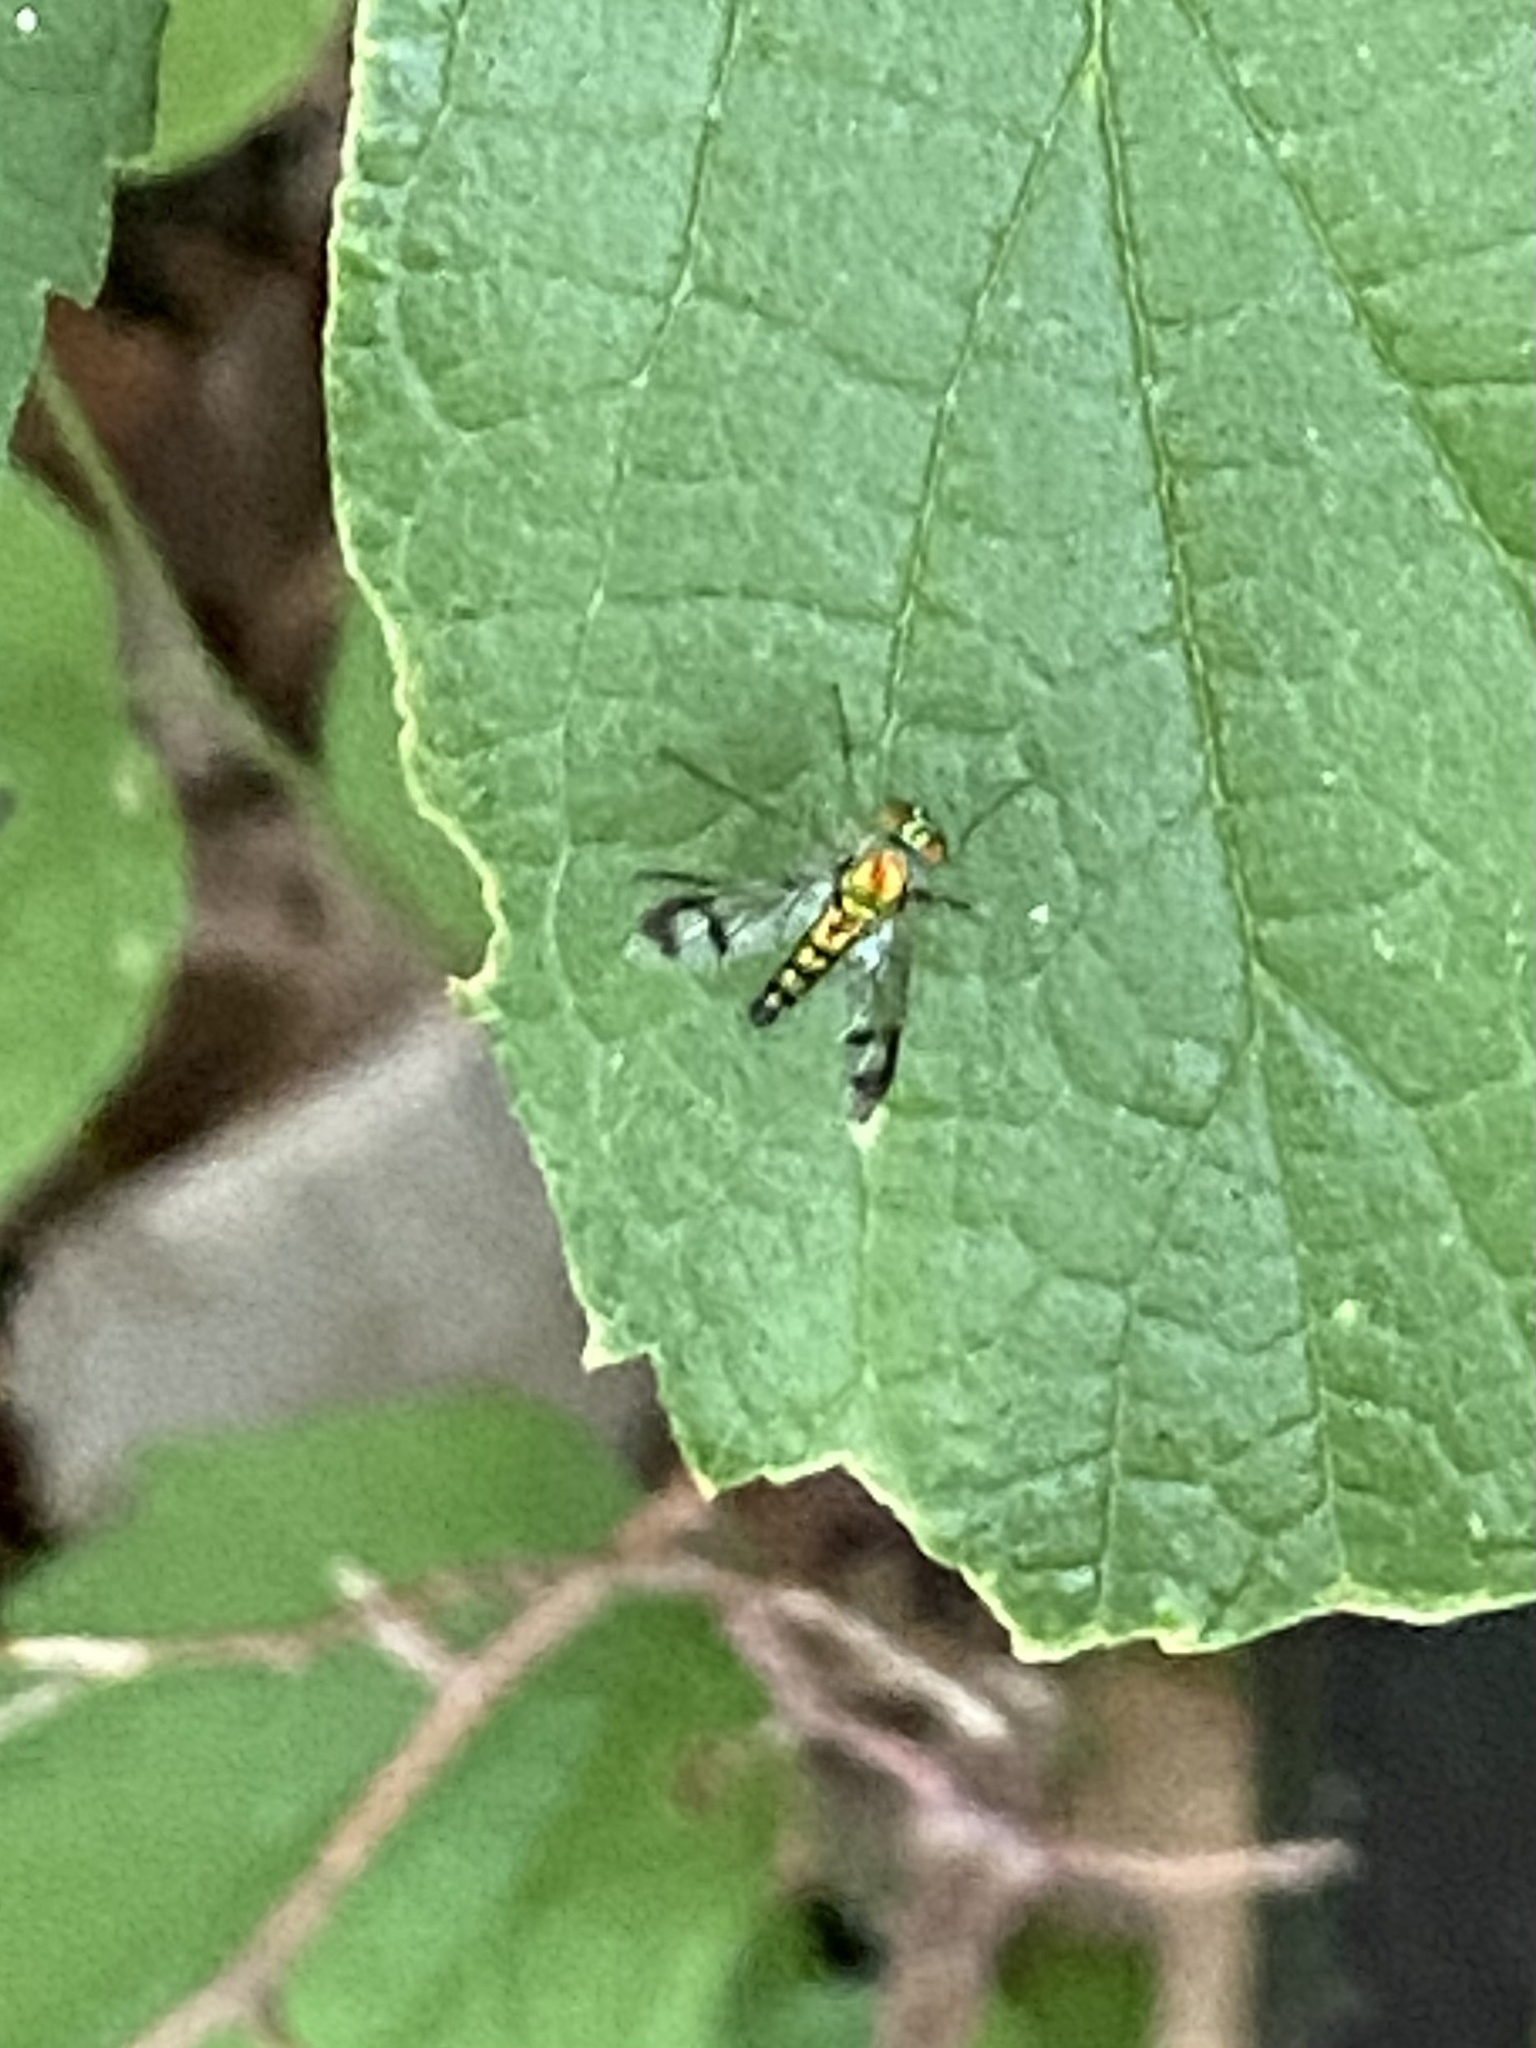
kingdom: Animalia
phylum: Arthropoda
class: Insecta
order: Diptera
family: Dolichopodidae
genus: Condylostylus
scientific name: Condylostylus
